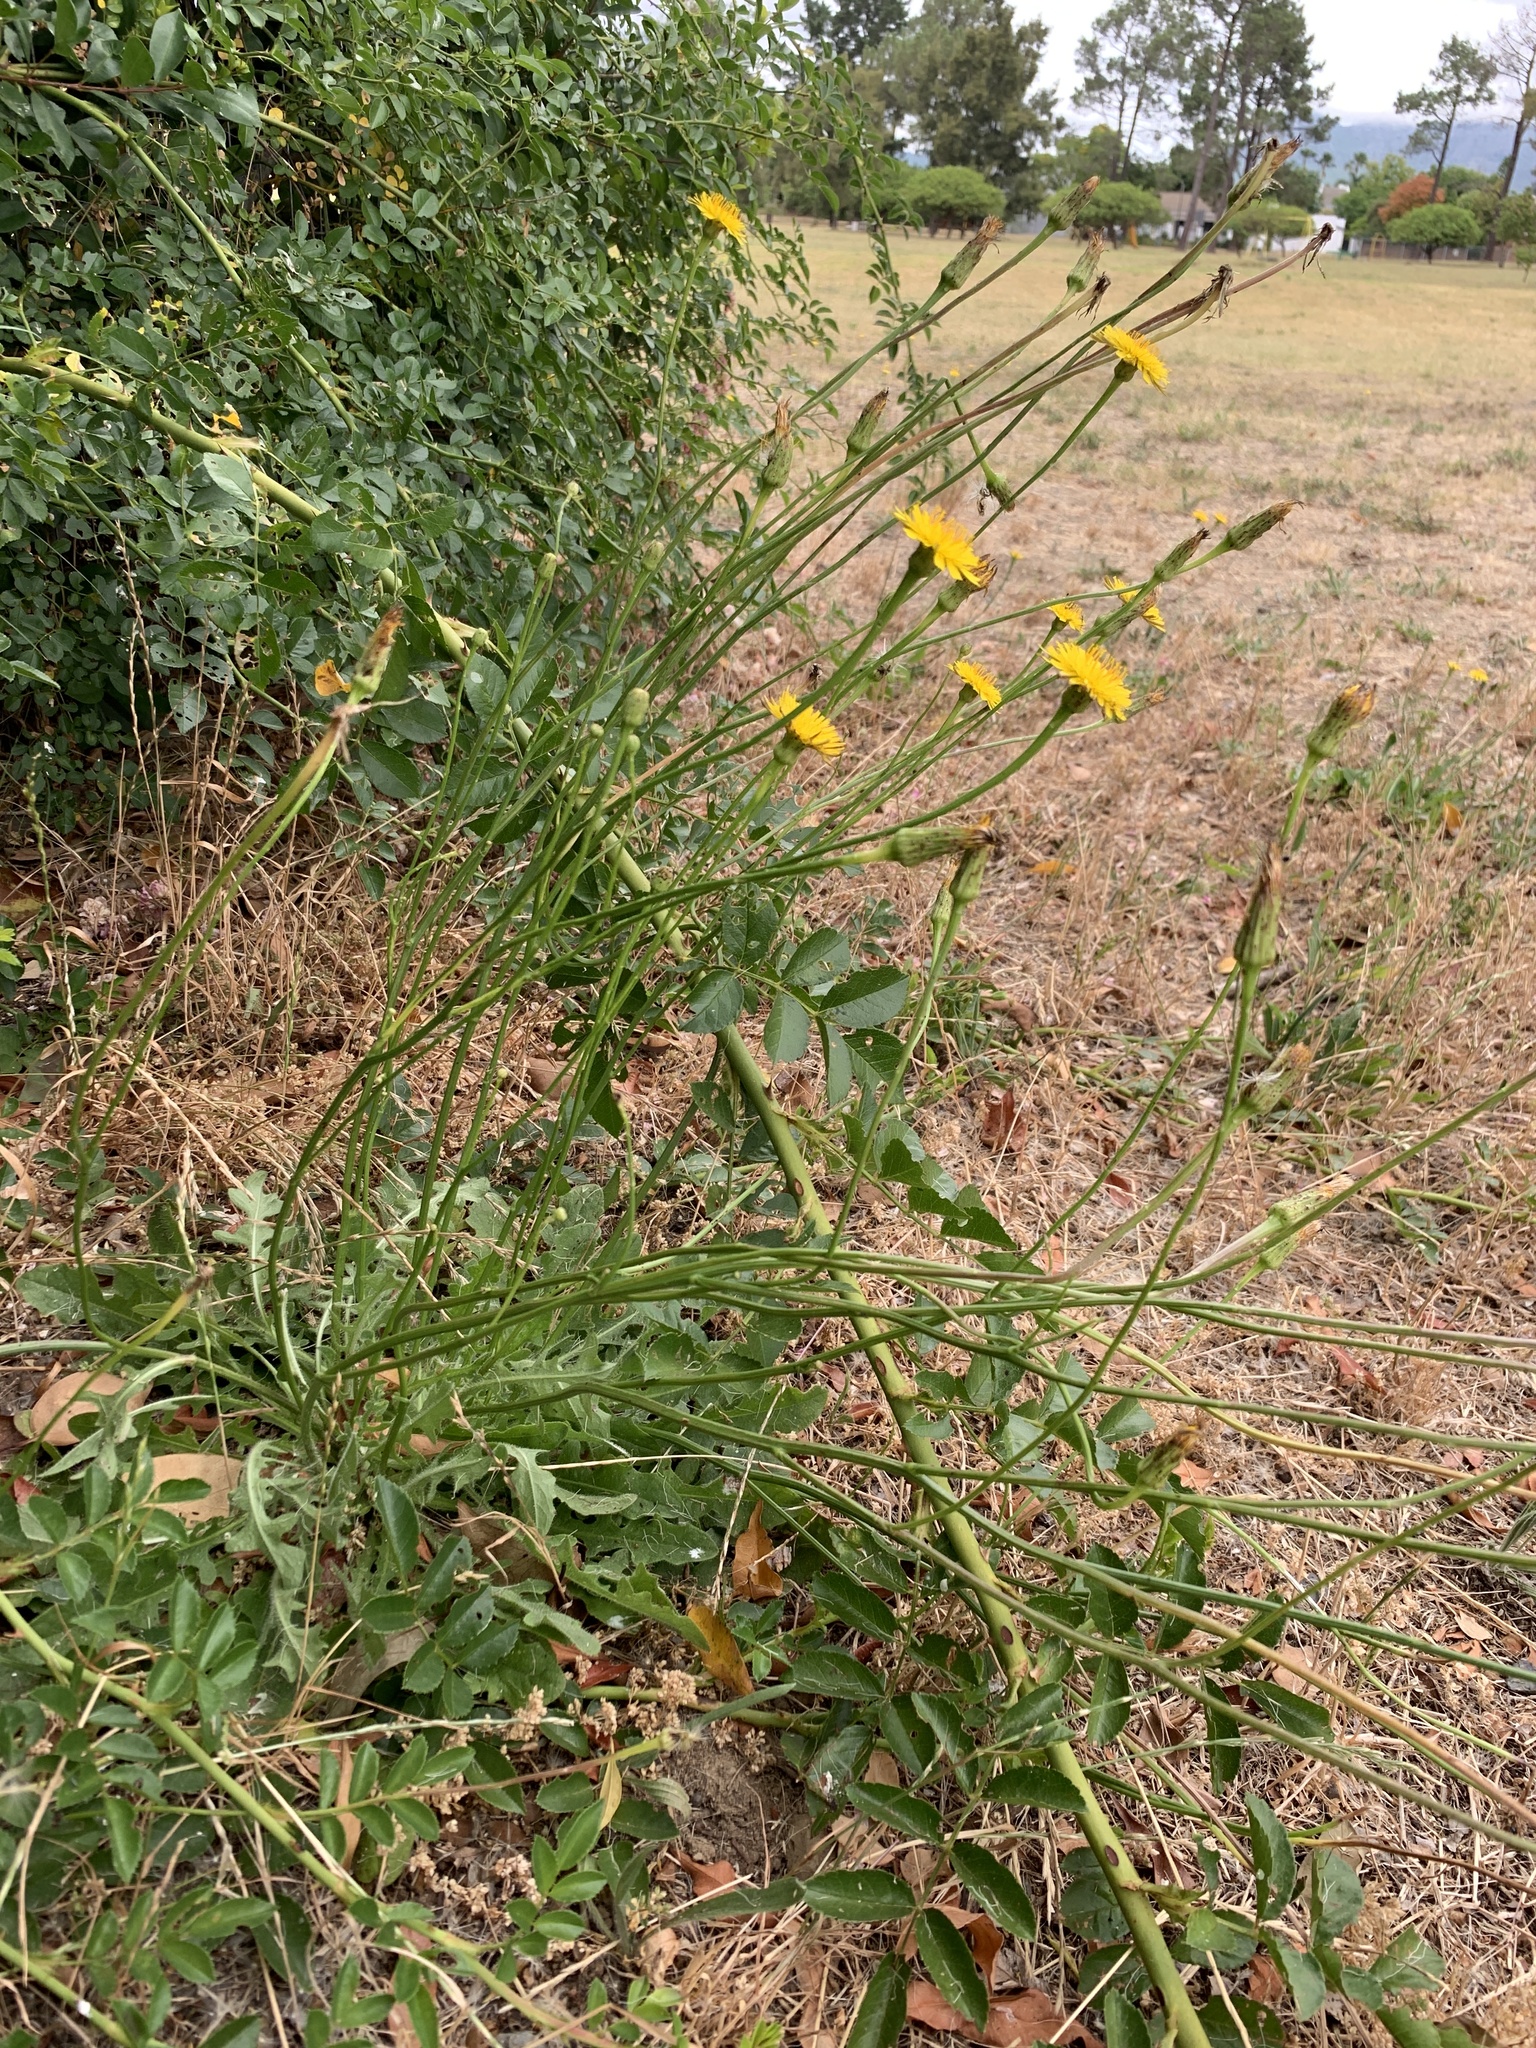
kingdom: Plantae
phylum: Tracheophyta
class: Magnoliopsida
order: Asterales
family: Asteraceae
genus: Hypochaeris
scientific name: Hypochaeris radicata
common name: Flatweed
